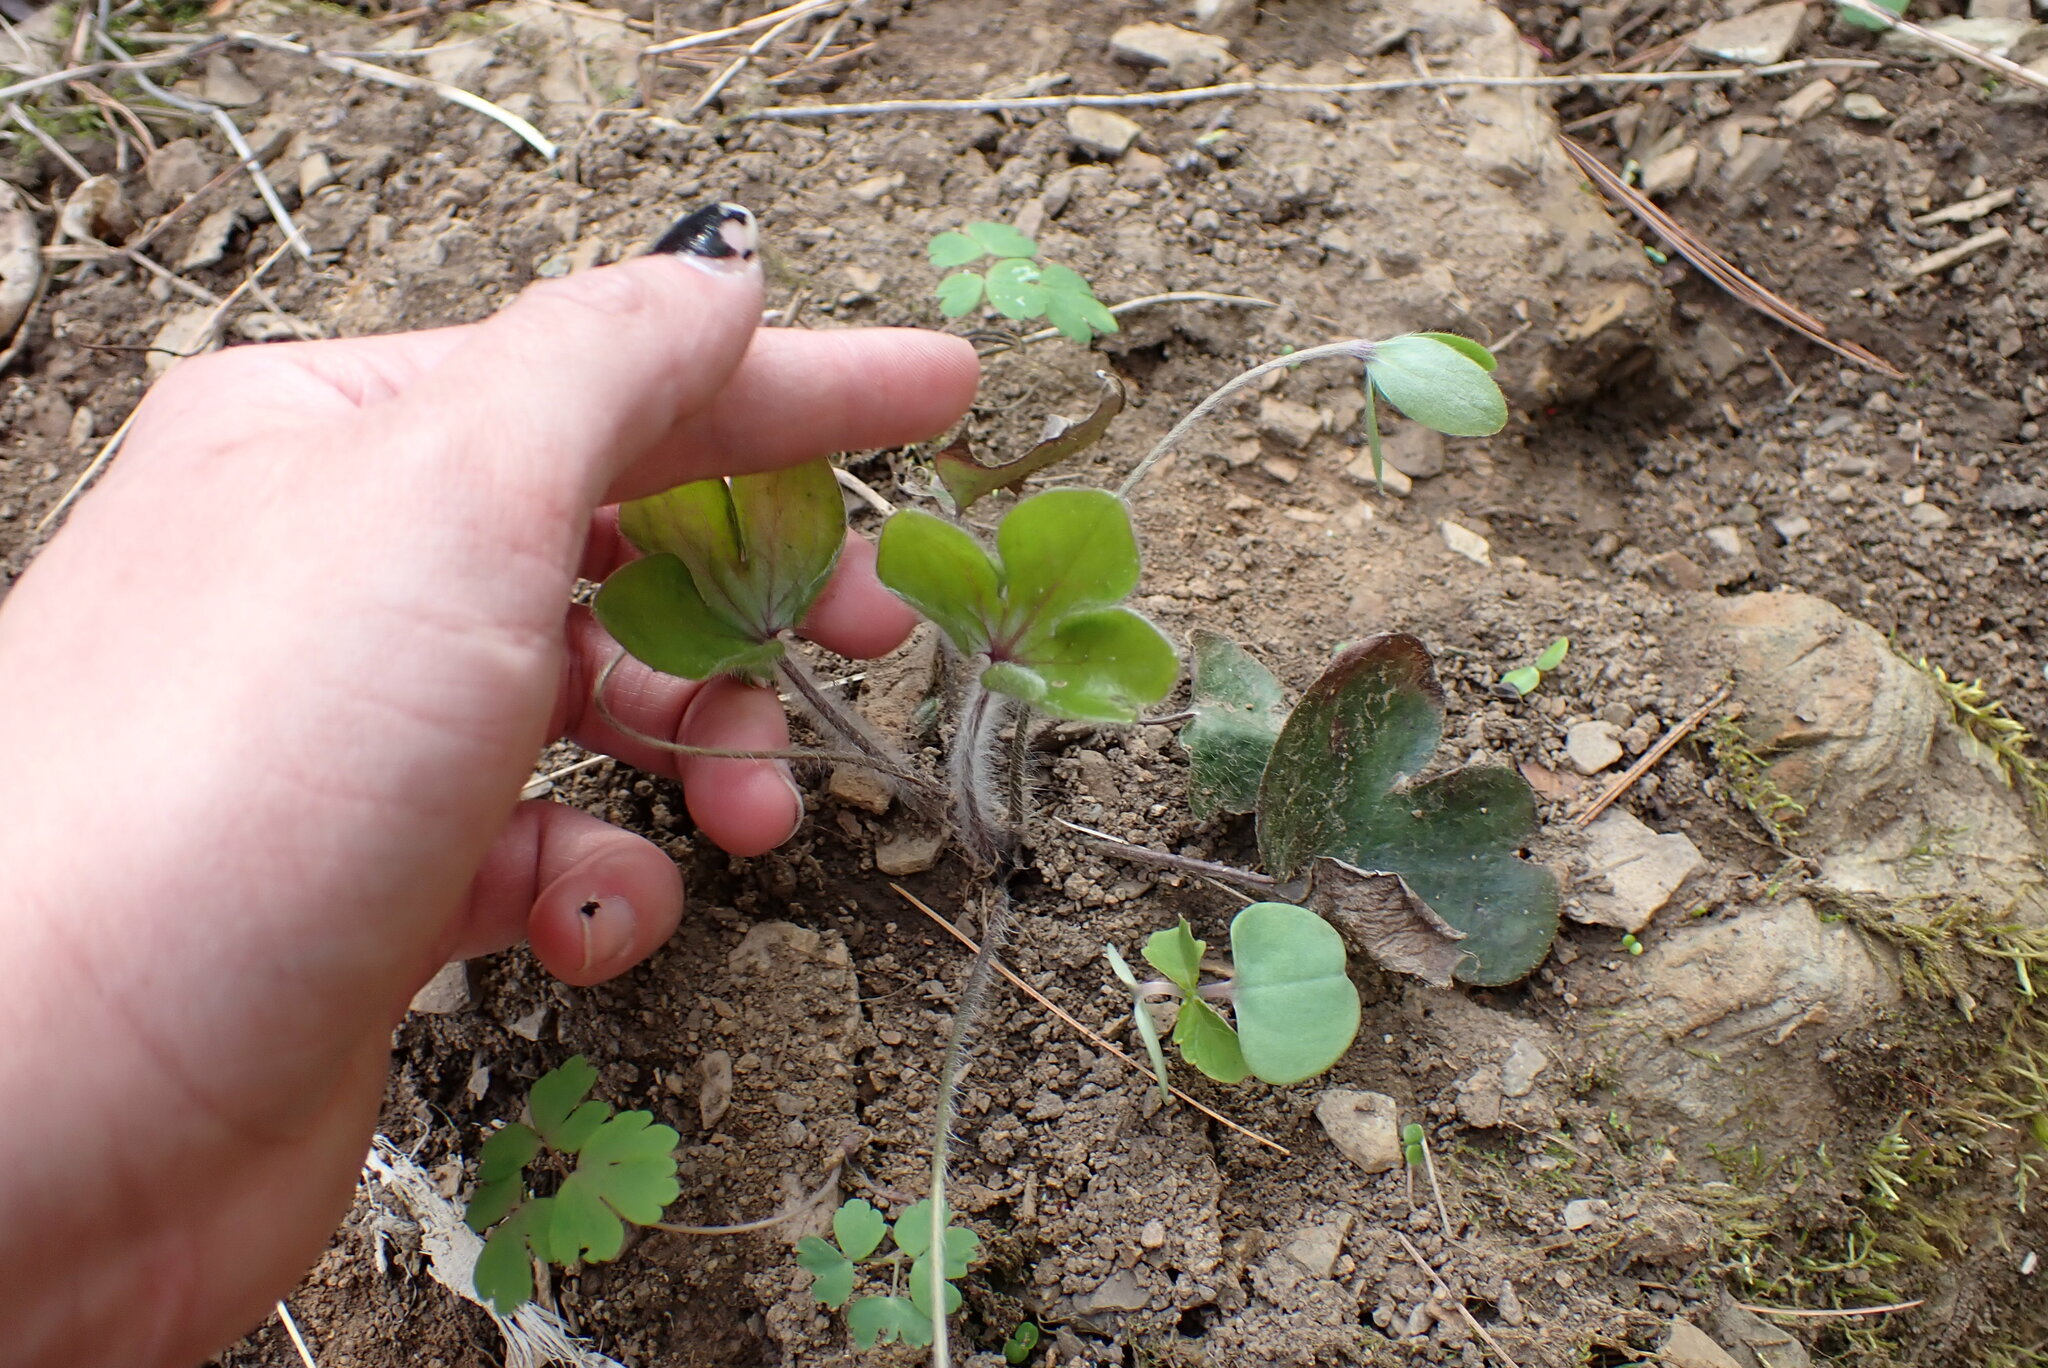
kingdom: Plantae
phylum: Tracheophyta
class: Magnoliopsida
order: Ranunculales
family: Ranunculaceae
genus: Hepatica
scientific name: Hepatica americana
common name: American hepatica
